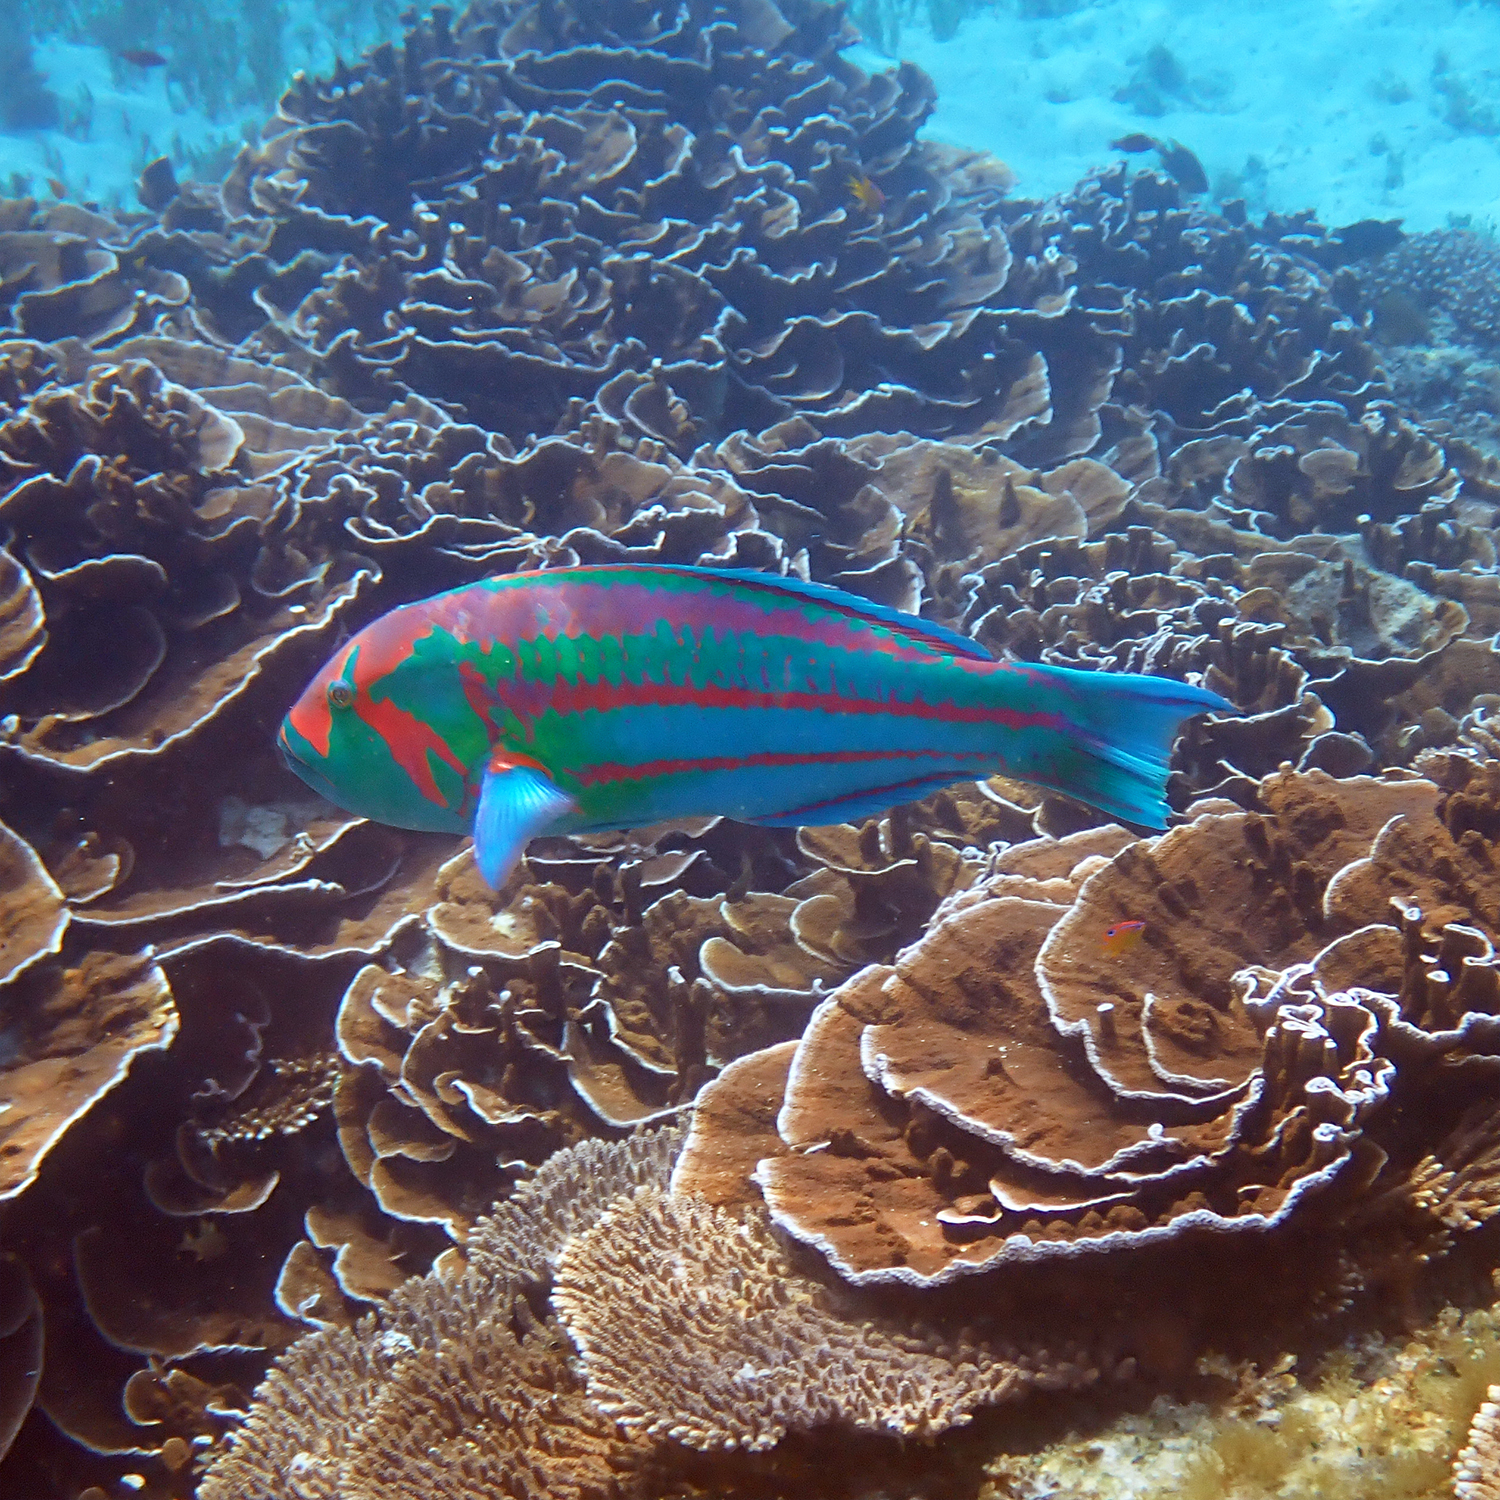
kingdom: Animalia
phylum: Chordata
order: Perciformes
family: Labridae
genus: Thalassoma
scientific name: Thalassoma purpureum
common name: Parrotfish
